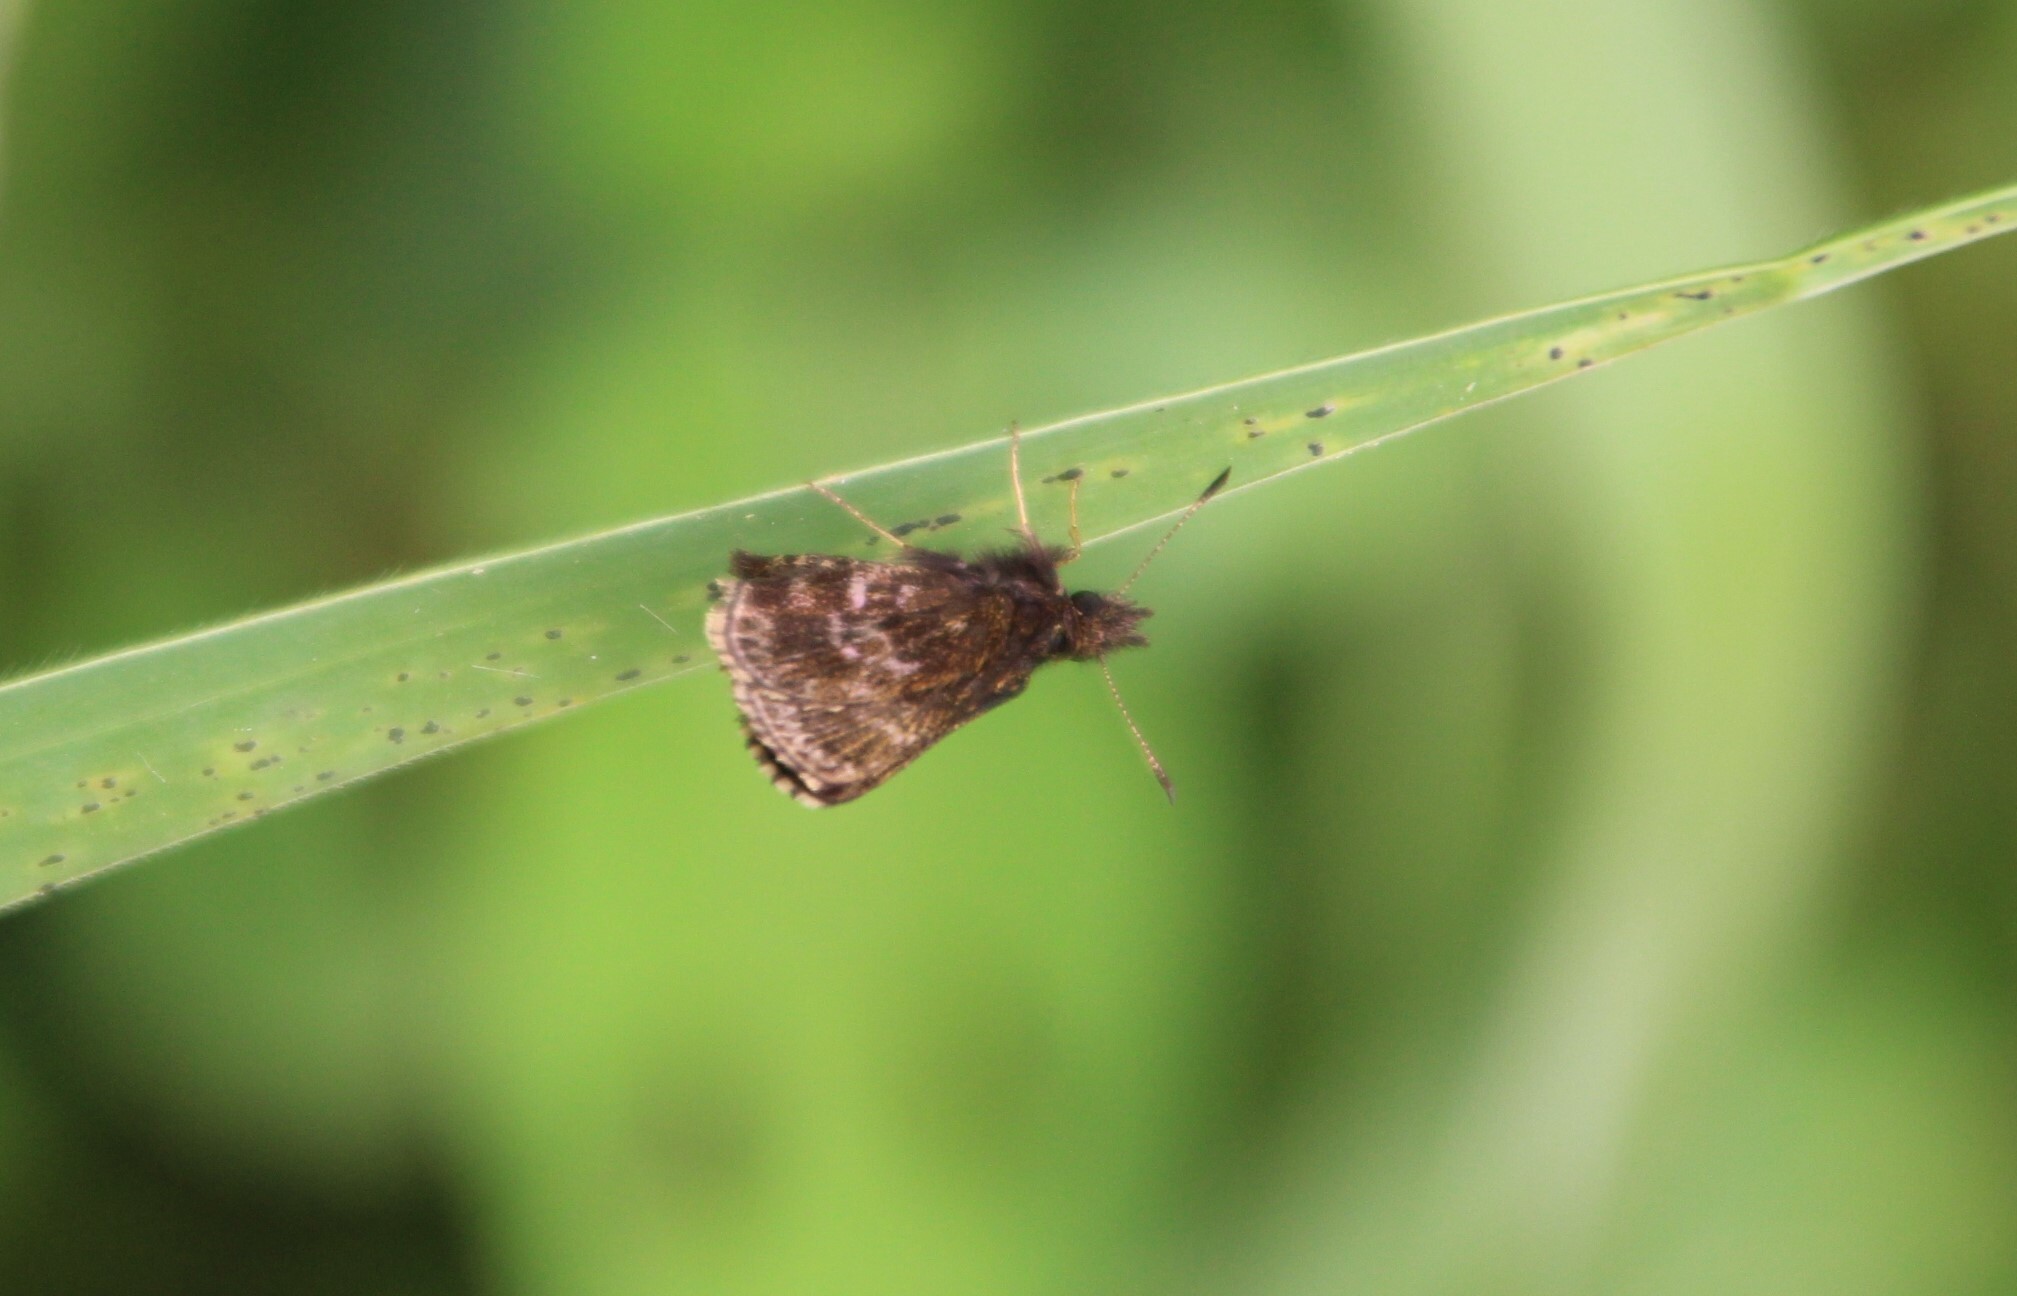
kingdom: Animalia
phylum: Arthropoda
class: Insecta
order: Lepidoptera
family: Hesperiidae
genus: Prosopalpus
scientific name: Prosopalpus styla
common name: Widespread dwarf skipper
